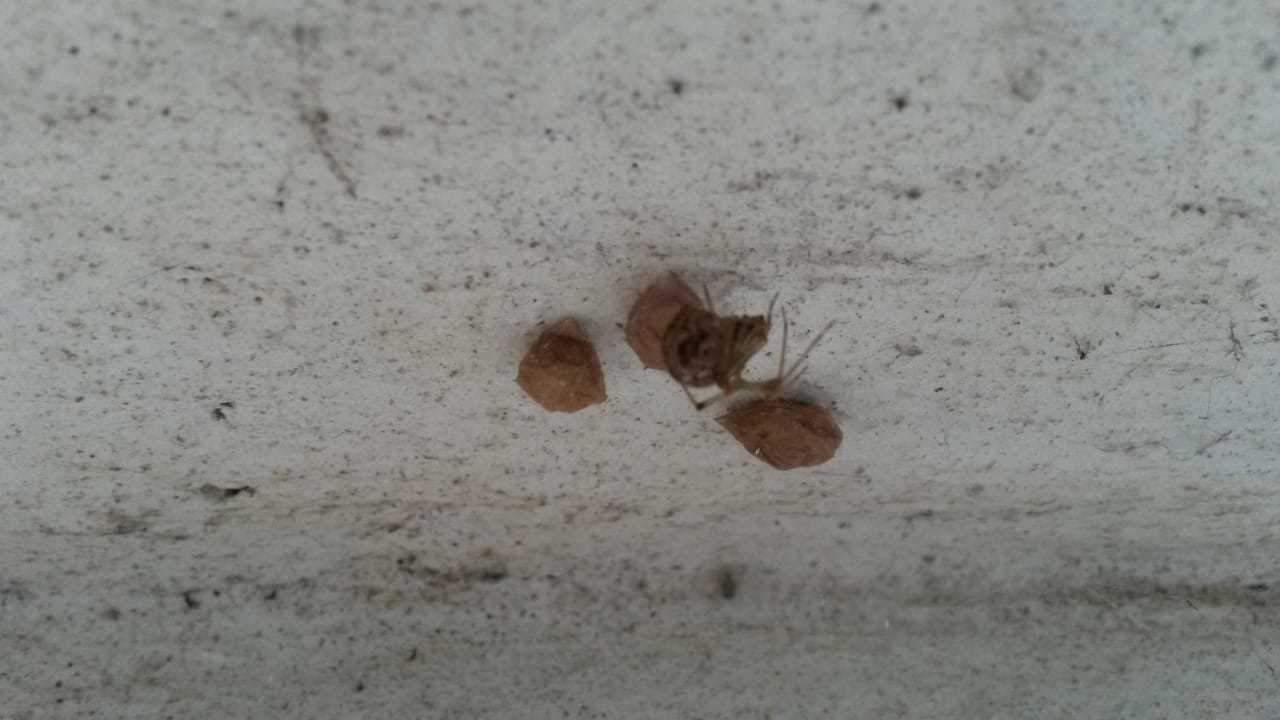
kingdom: Animalia
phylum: Arthropoda
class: Arachnida
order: Araneae
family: Theridiidae
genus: Parasteatoda
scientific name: Parasteatoda tepidariorum
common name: Common house spider
